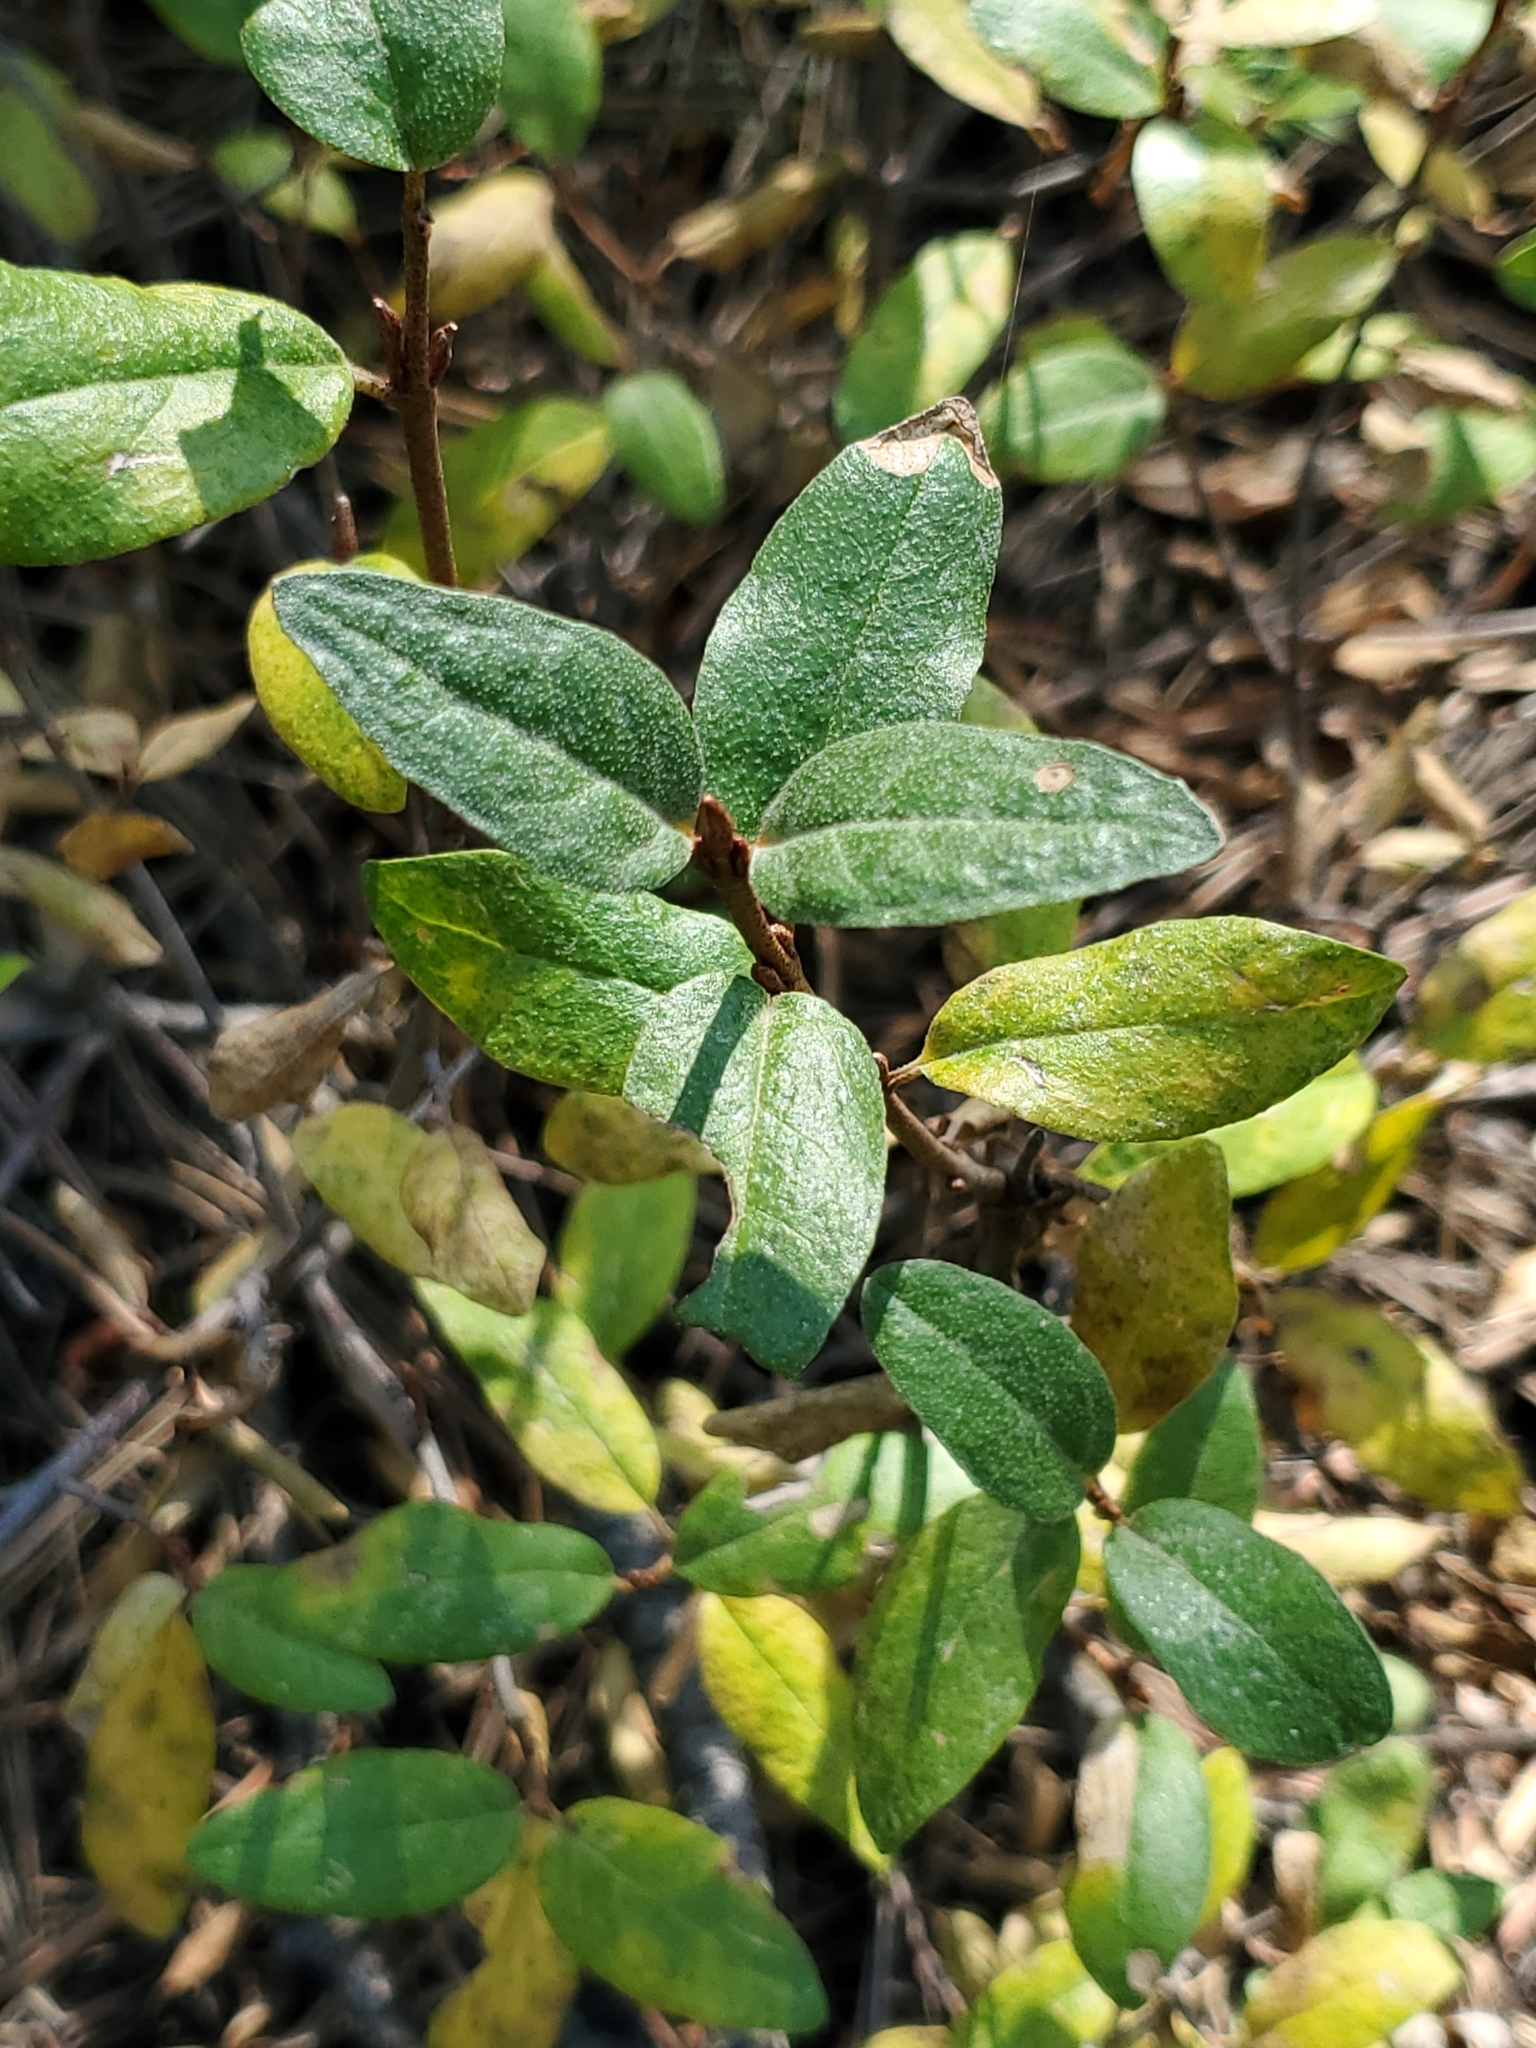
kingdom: Plantae
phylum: Tracheophyta
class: Magnoliopsida
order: Rosales
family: Elaeagnaceae
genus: Shepherdia
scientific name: Shepherdia canadensis
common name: Soapberry
